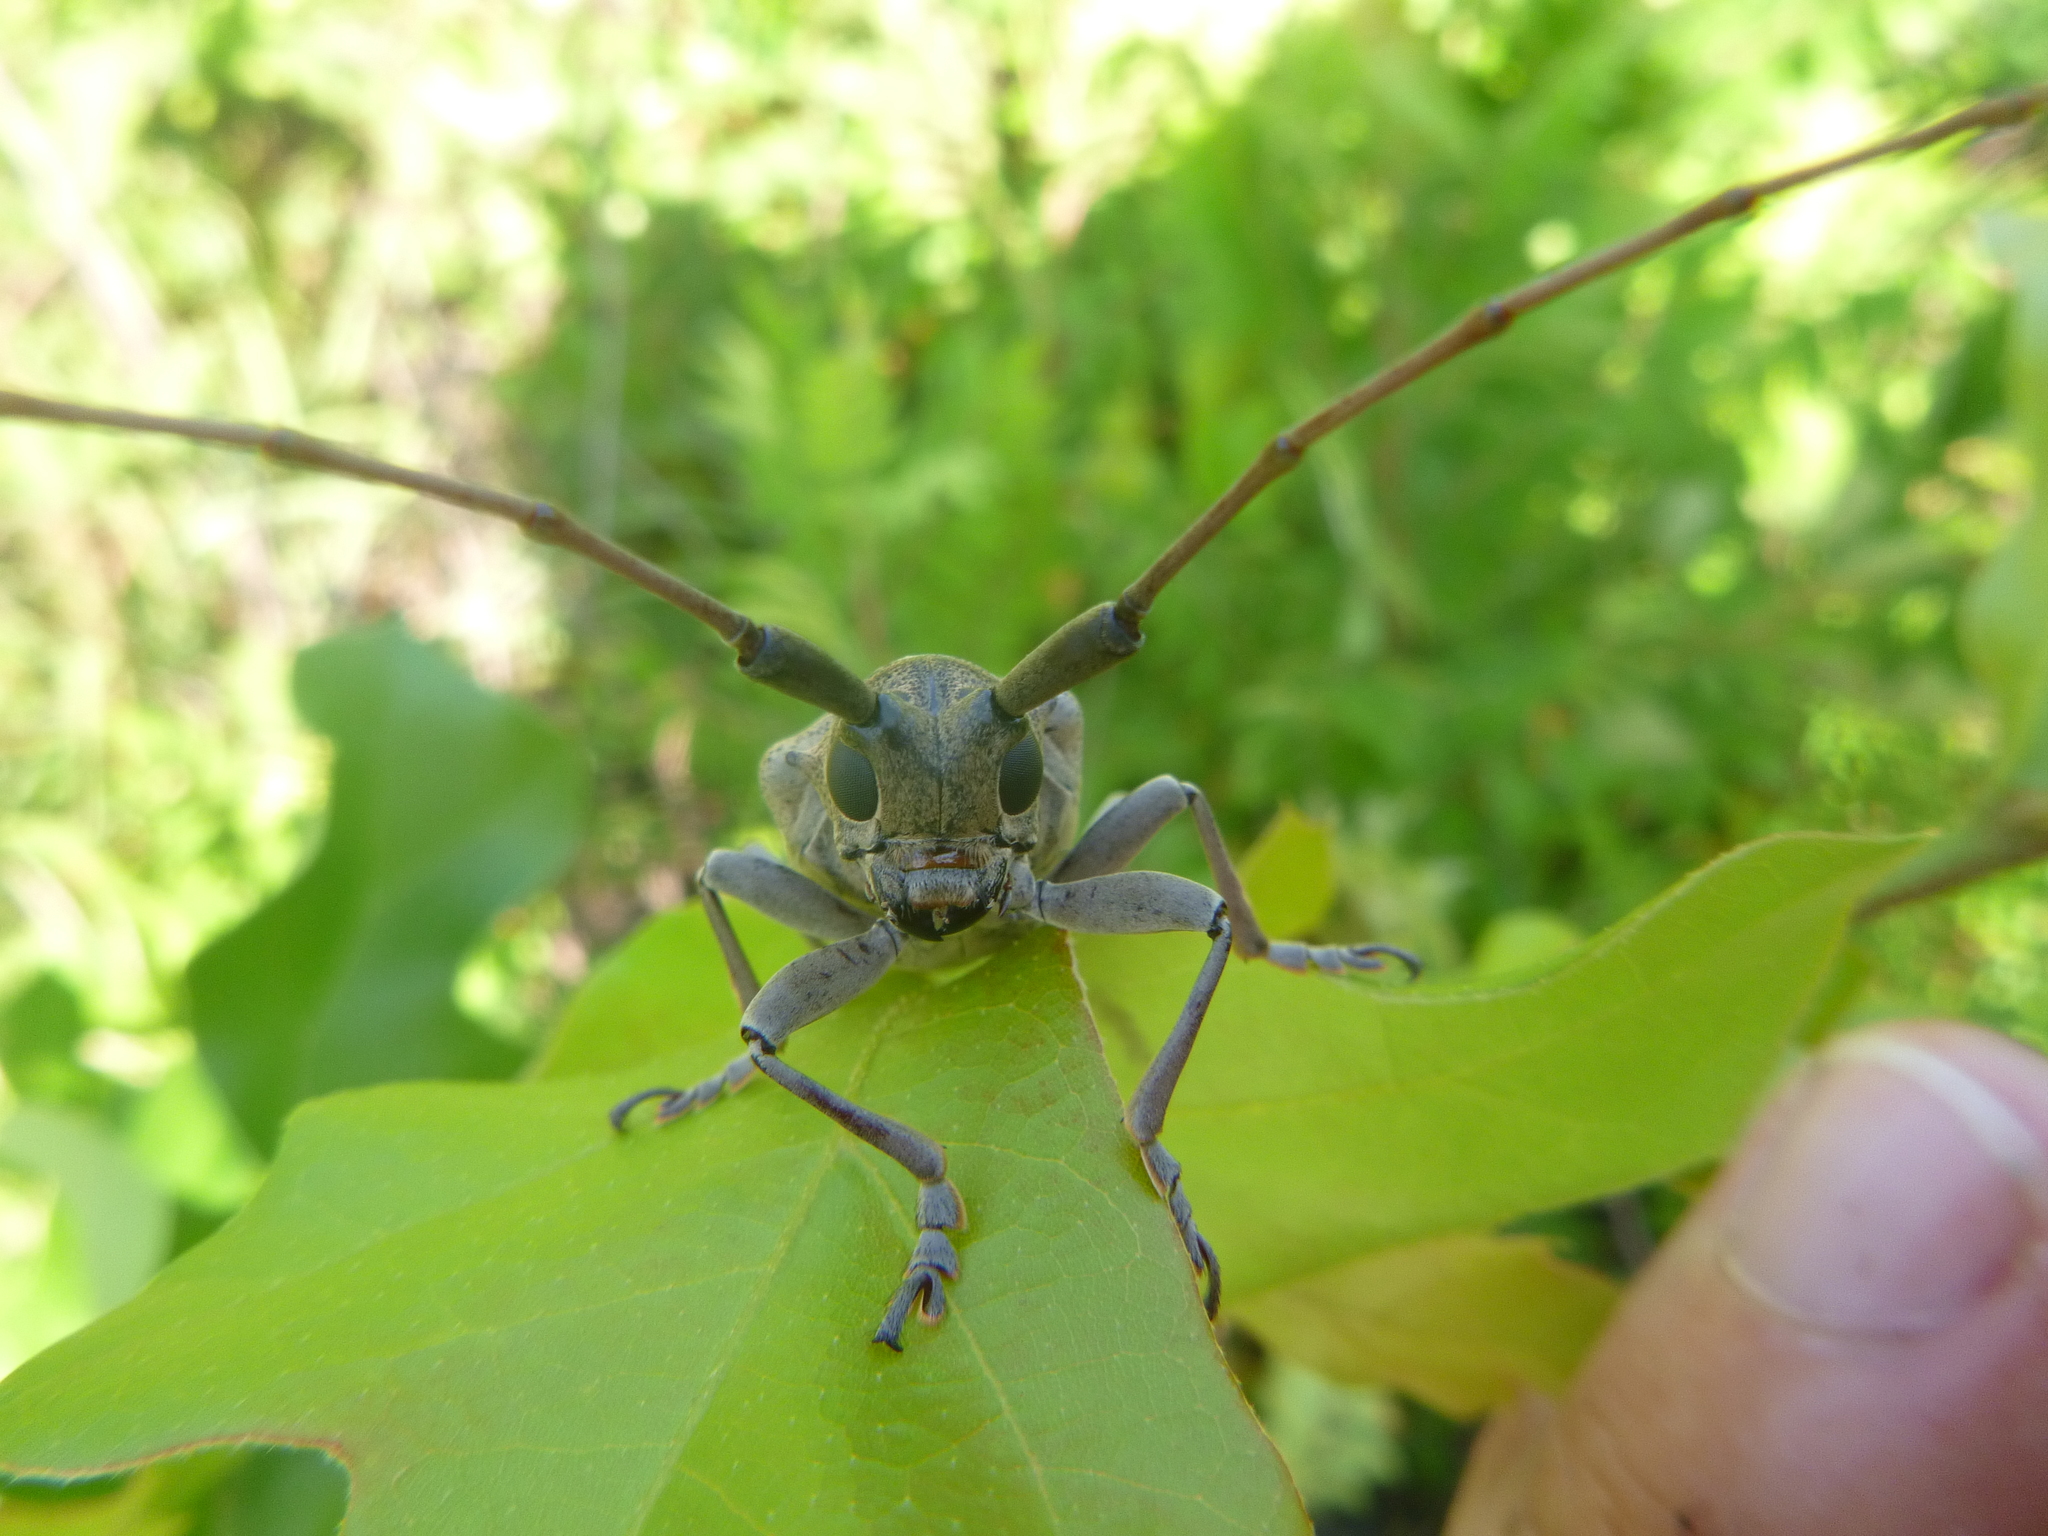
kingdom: Animalia
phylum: Arthropoda
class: Insecta
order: Coleoptera
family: Cerambycidae
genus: Goes
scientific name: Goes tesselatus
